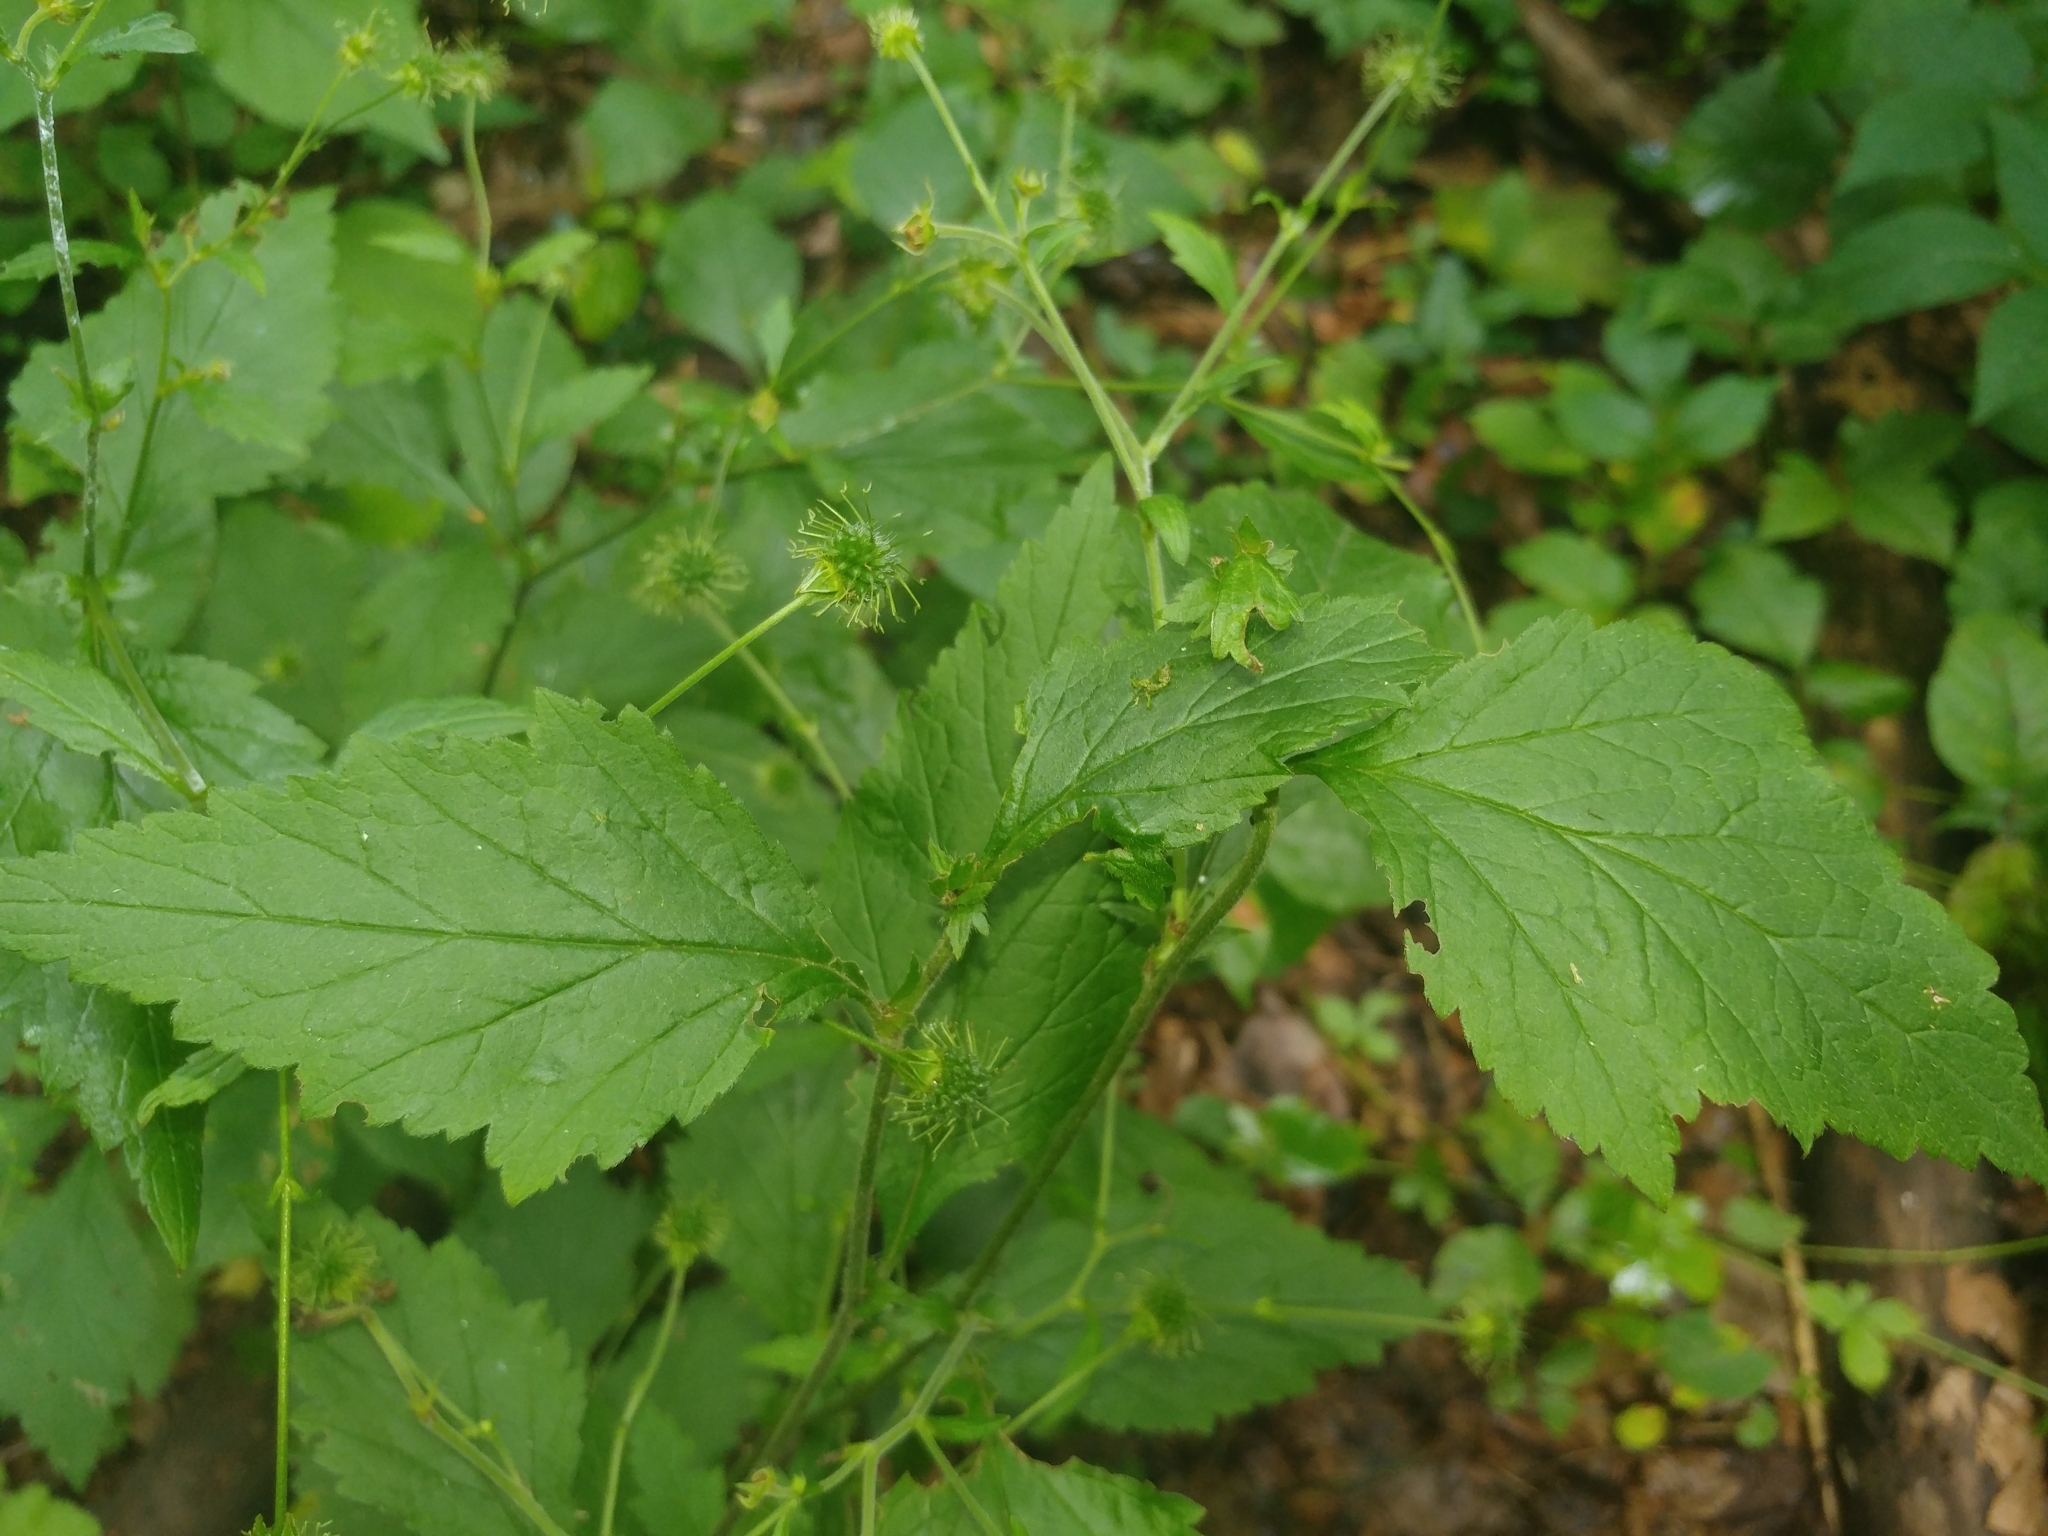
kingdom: Plantae
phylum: Tracheophyta
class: Magnoliopsida
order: Rosales
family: Rosaceae
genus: Geum
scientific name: Geum canadense
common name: White avens
